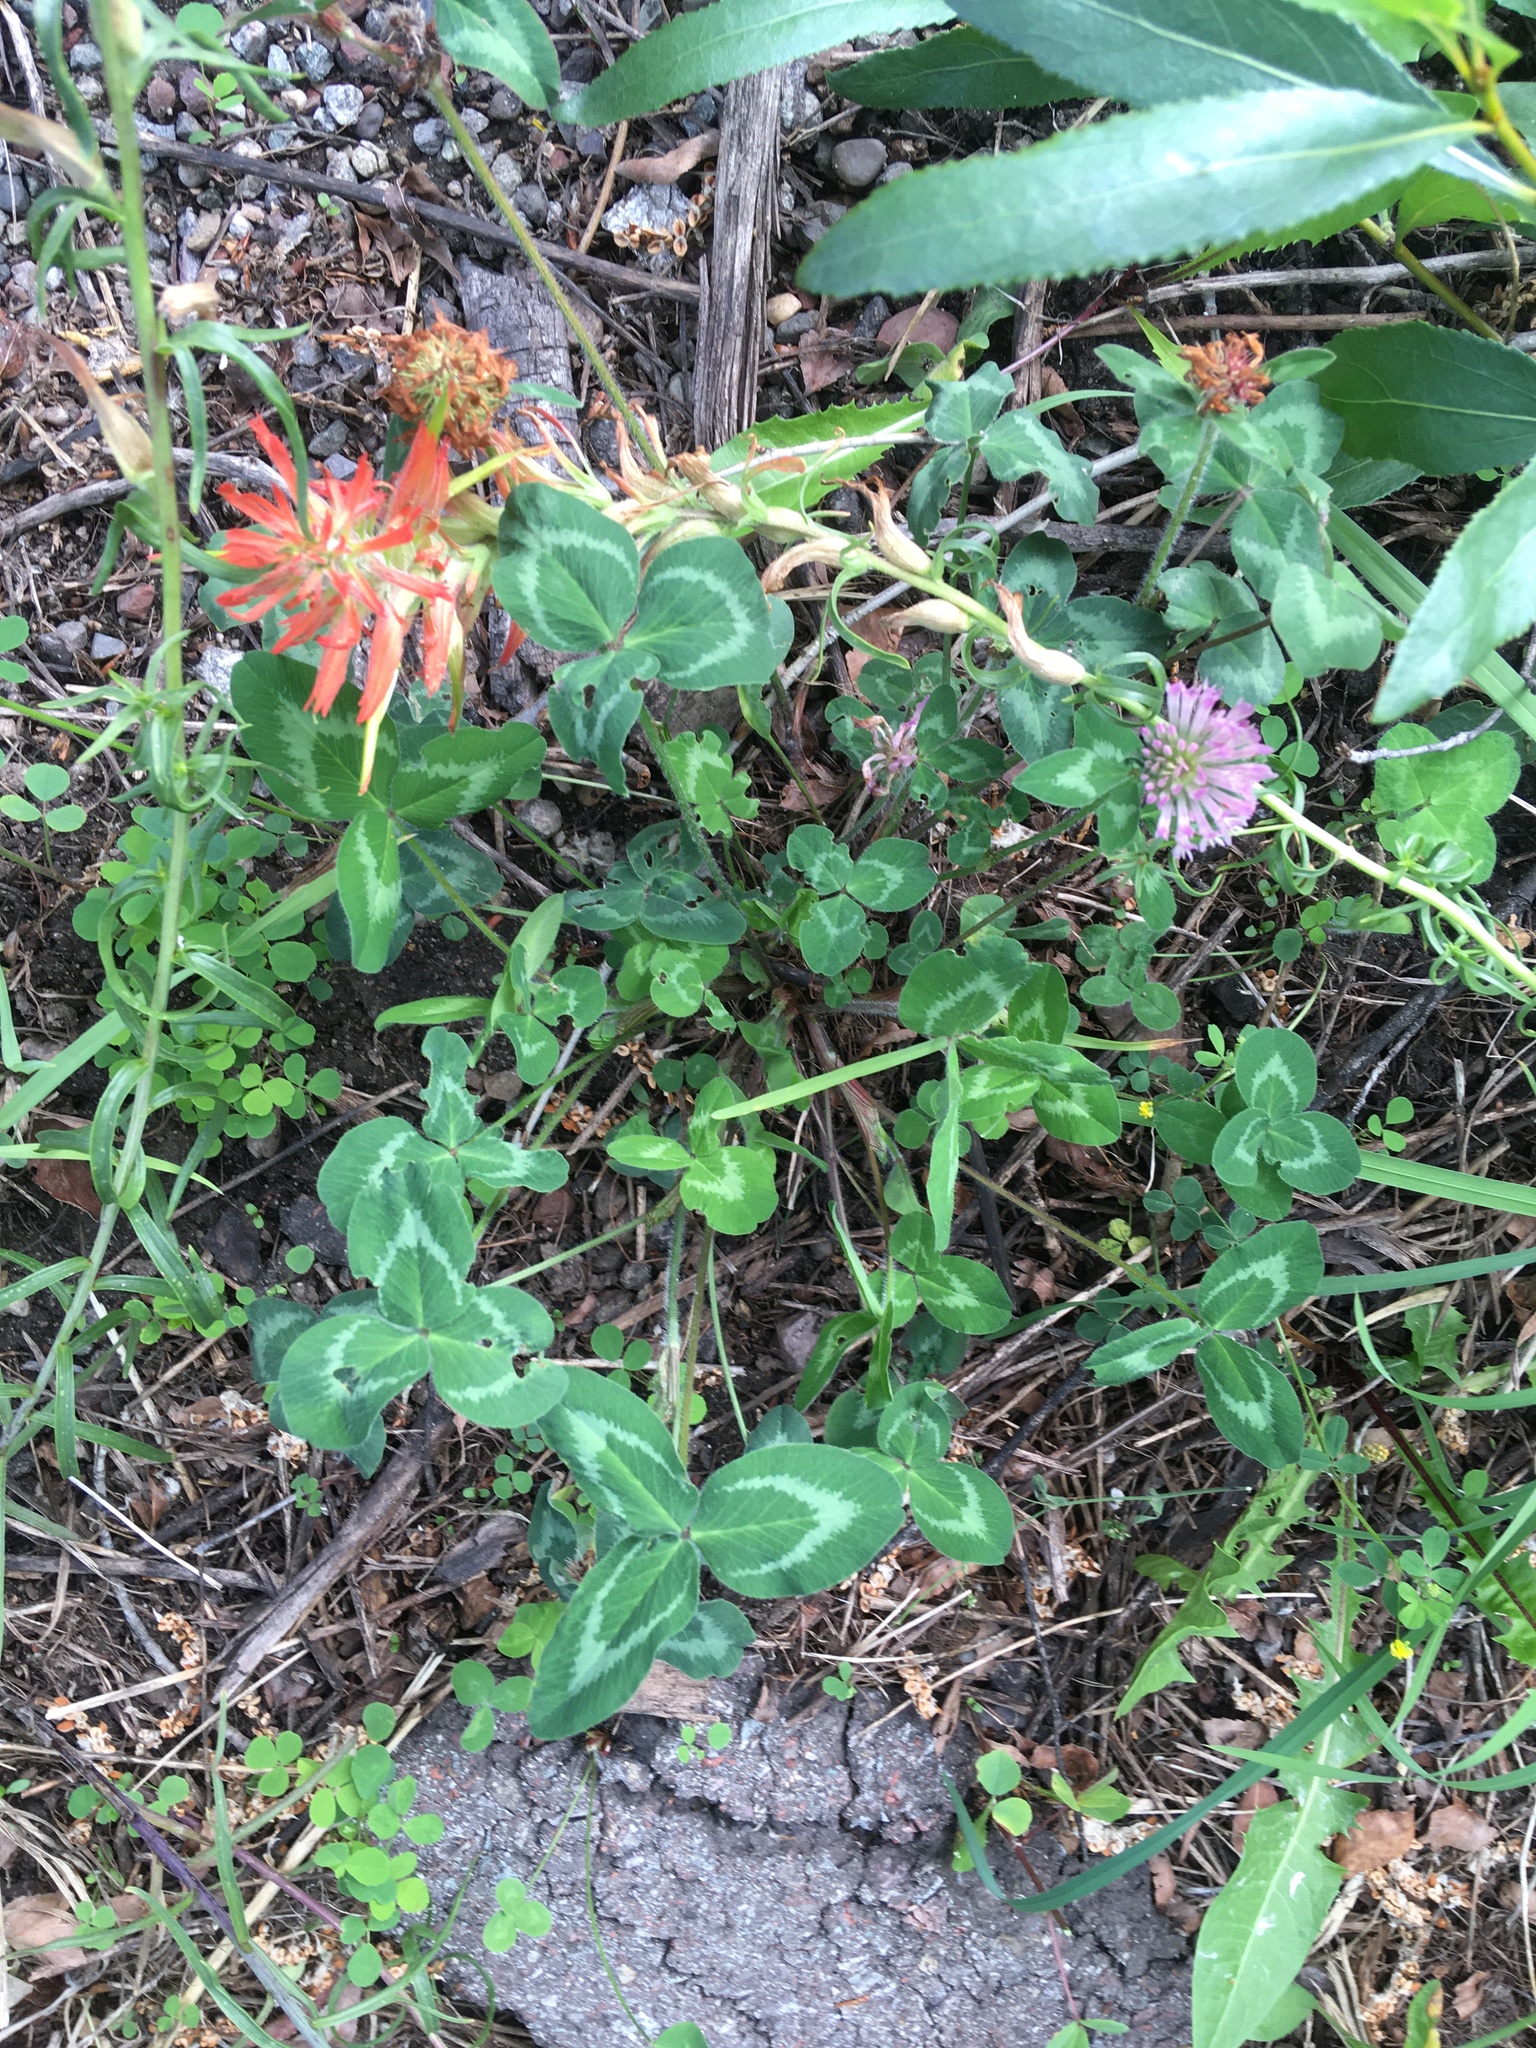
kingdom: Plantae
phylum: Tracheophyta
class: Magnoliopsida
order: Fabales
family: Fabaceae
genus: Trifolium
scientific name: Trifolium pratense
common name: Red clover
